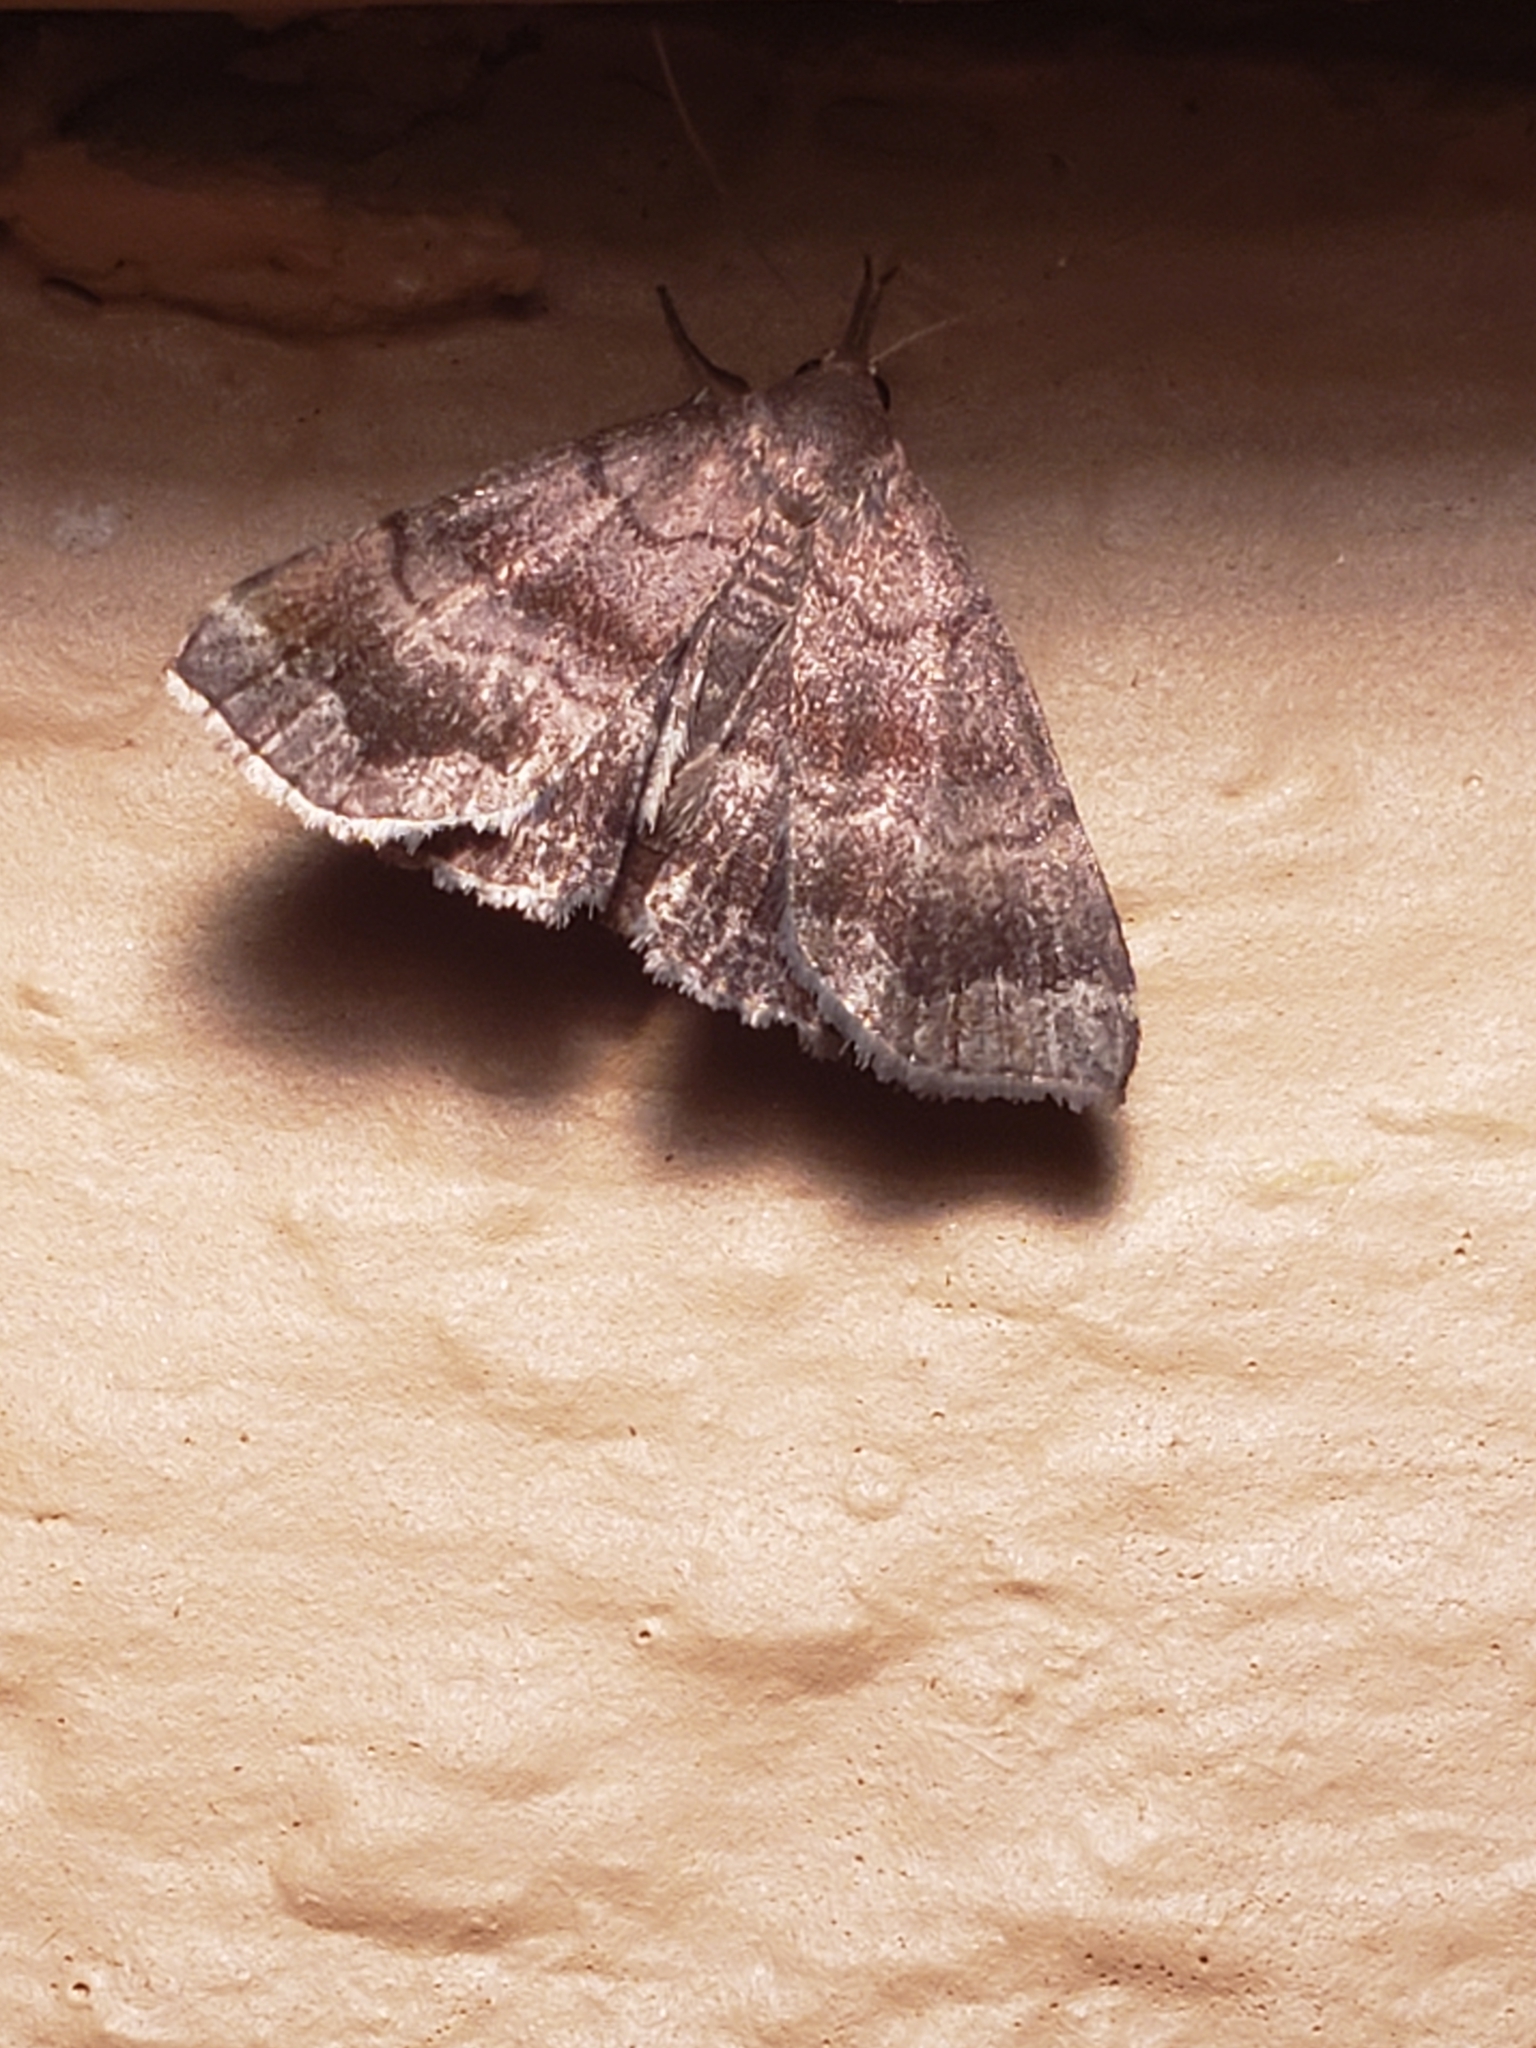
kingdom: Animalia
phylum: Arthropoda
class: Insecta
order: Lepidoptera
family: Erebidae
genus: Phalaenostola
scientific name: Phalaenostola larentioides
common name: Black-banded owlet
